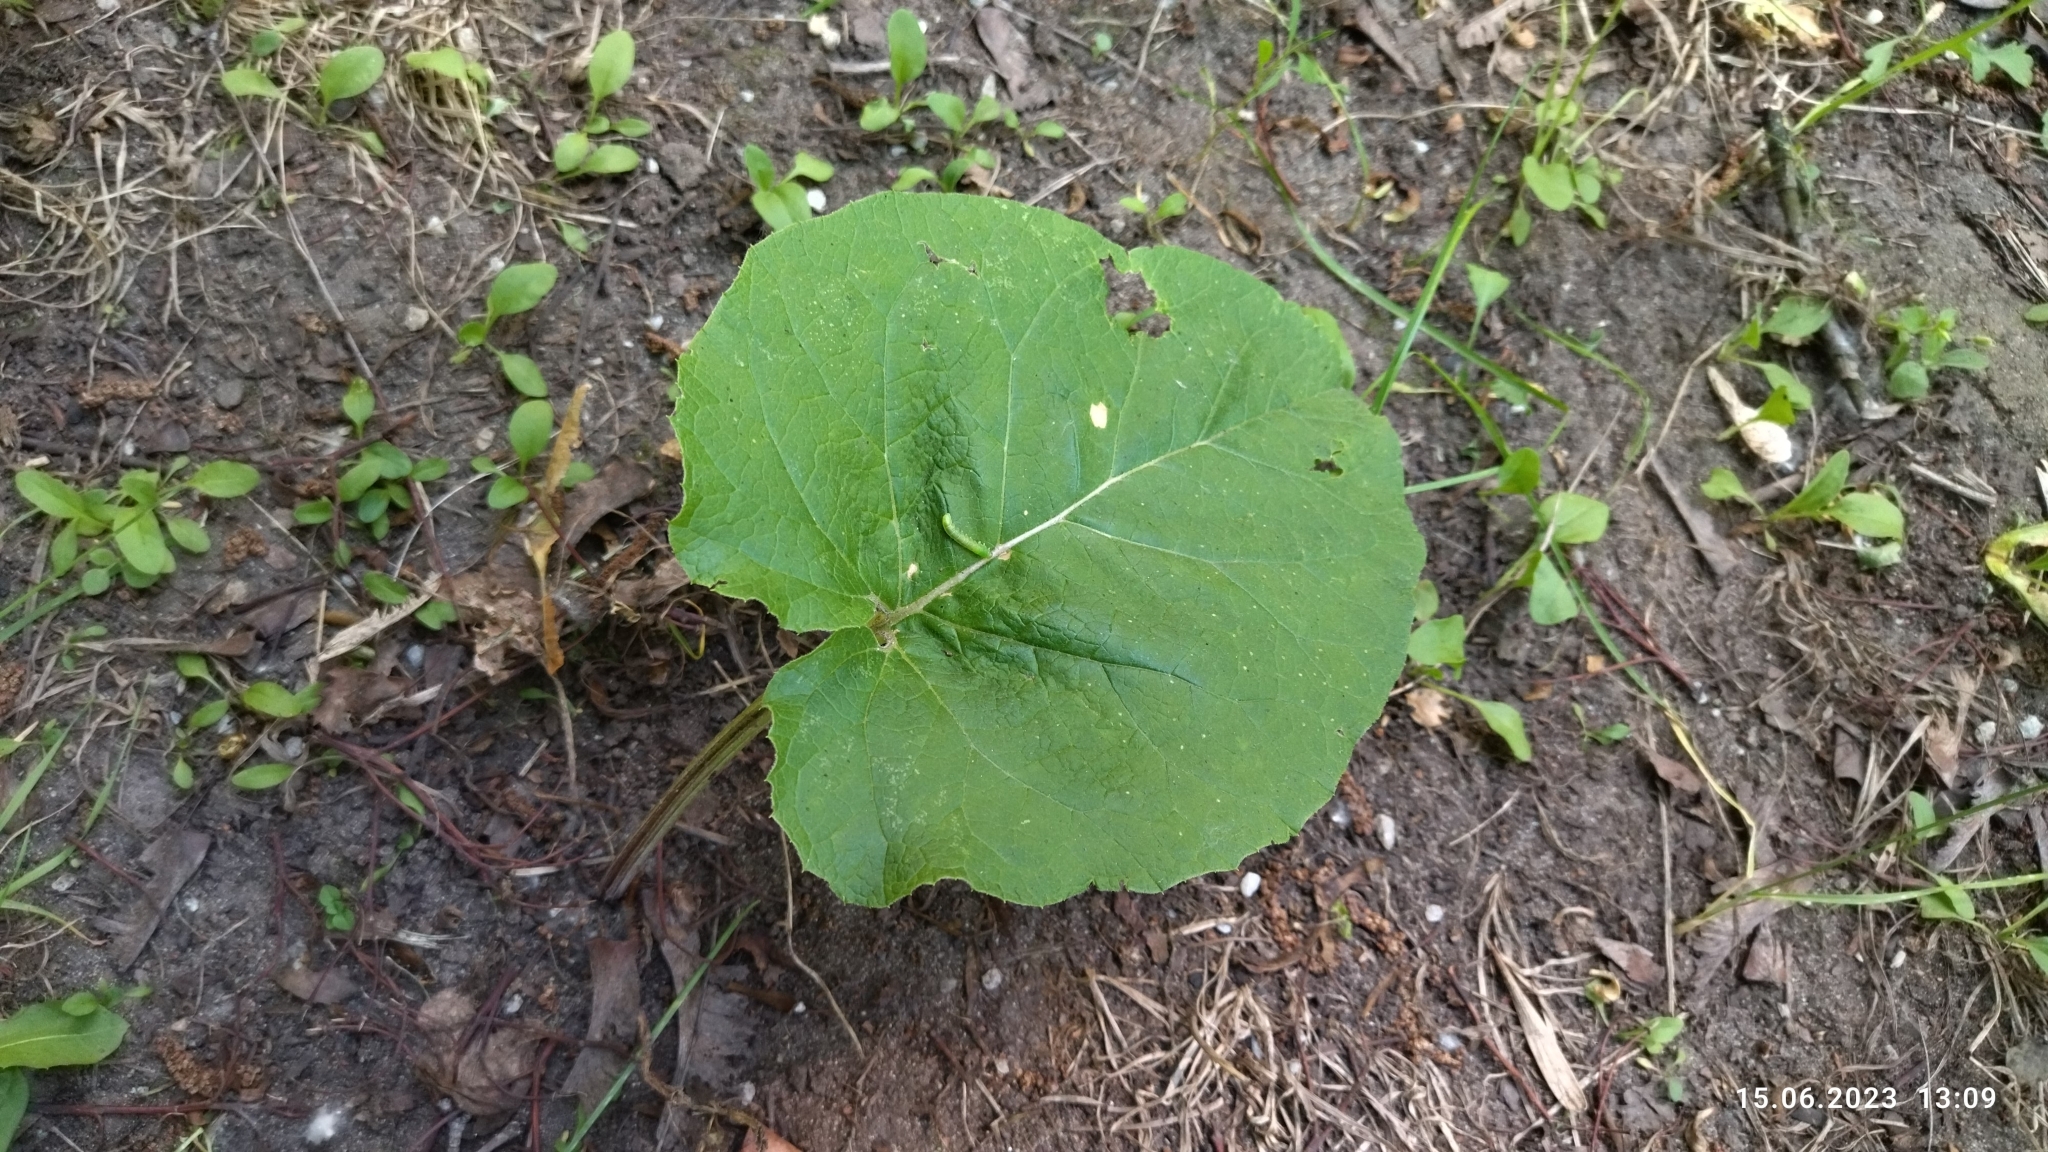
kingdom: Plantae
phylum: Tracheophyta
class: Magnoliopsida
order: Asterales
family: Asteraceae
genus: Arctium
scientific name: Arctium
